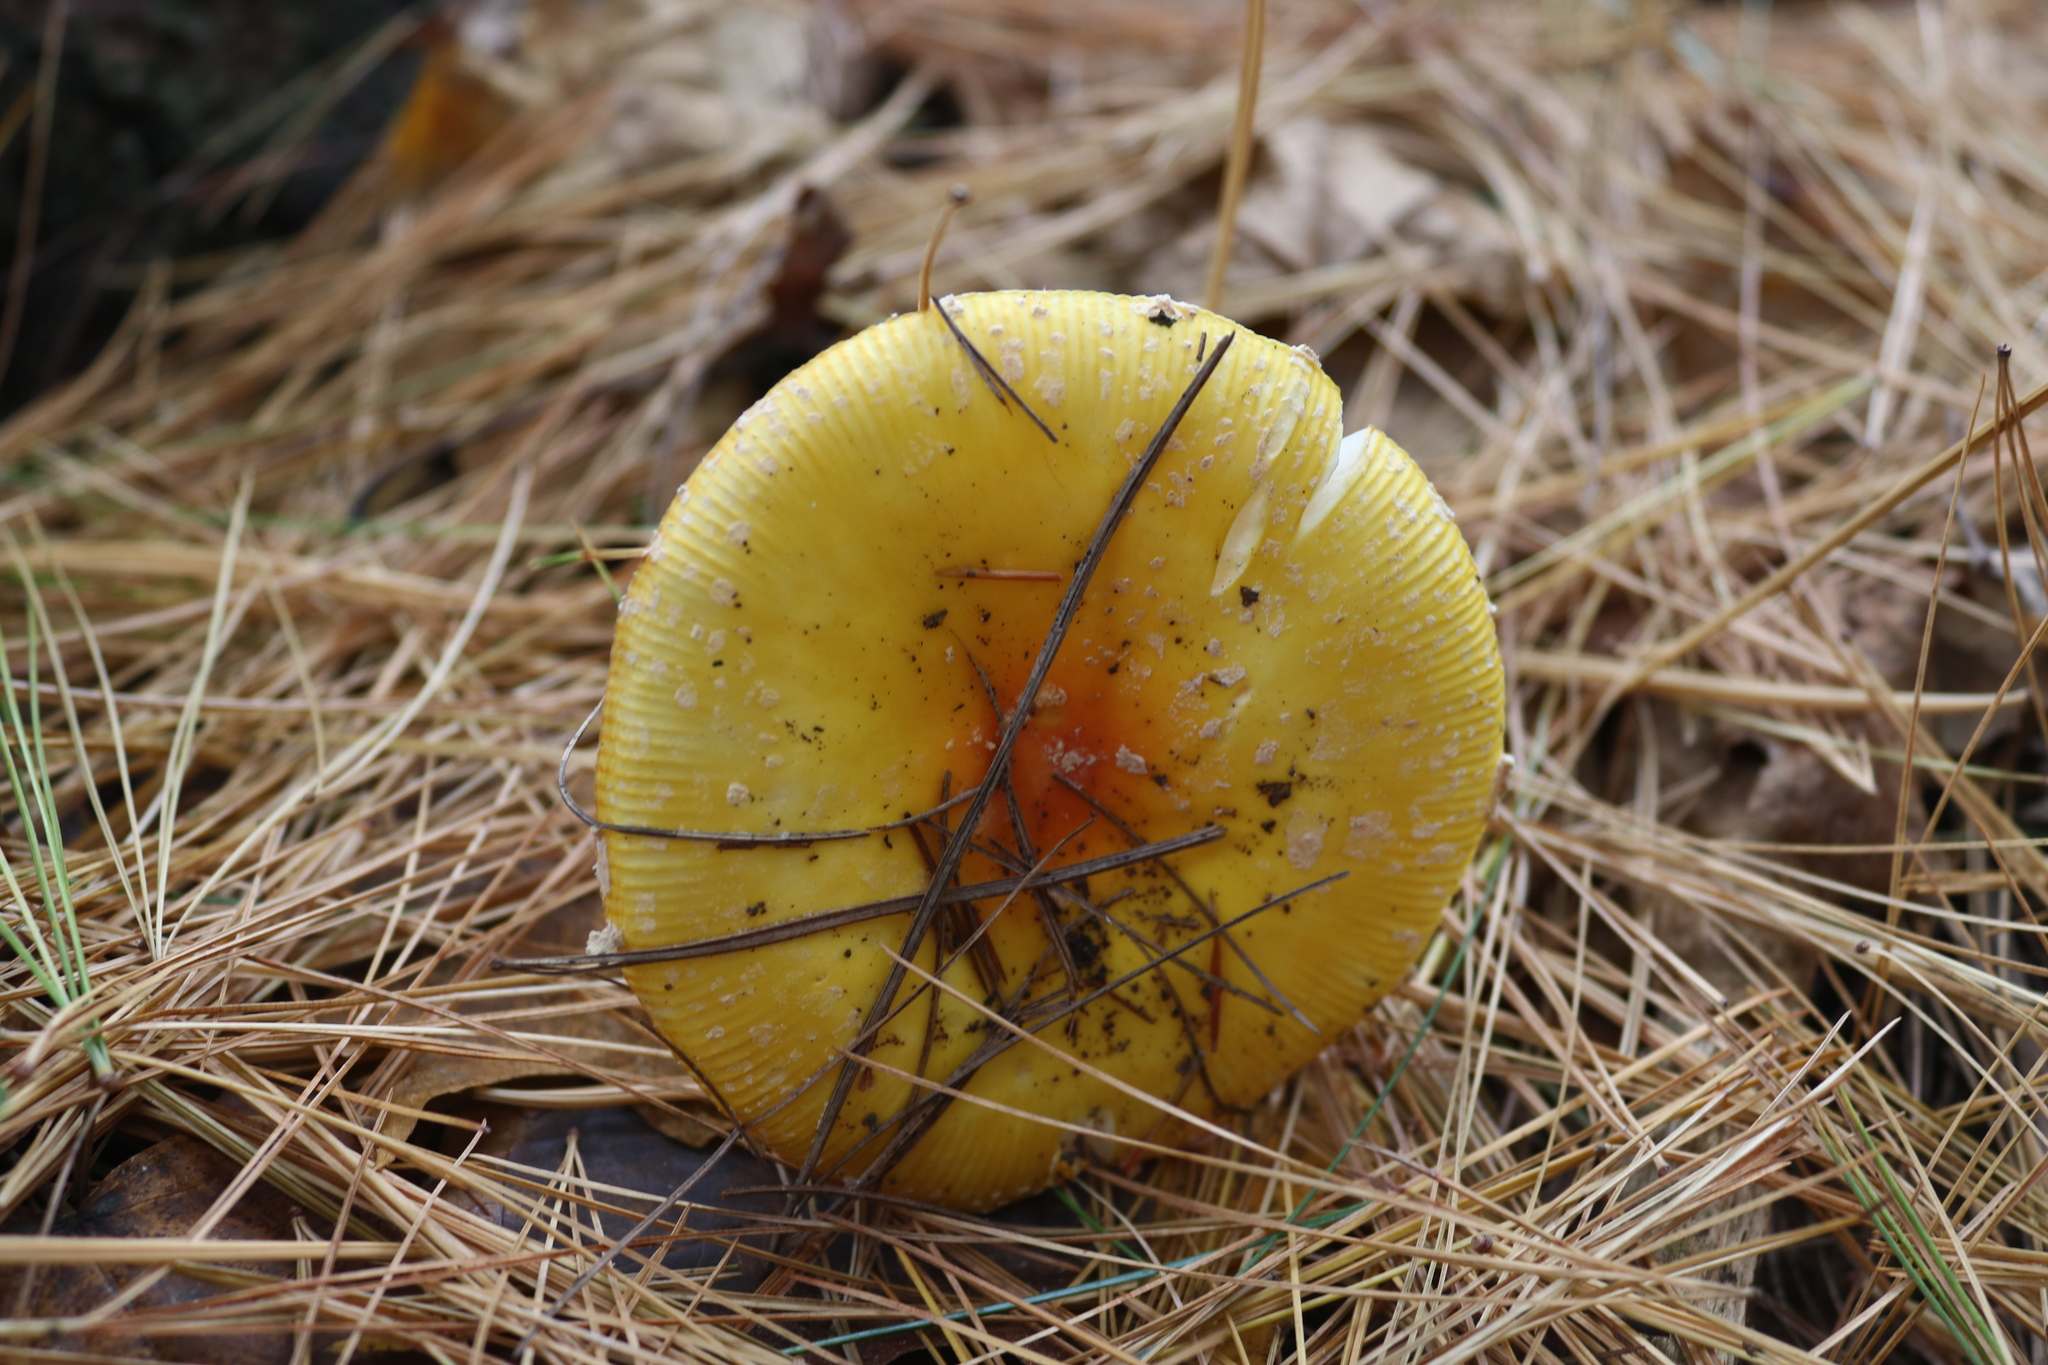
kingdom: Fungi
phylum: Basidiomycota
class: Agaricomycetes
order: Agaricales
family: Amanitaceae
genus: Amanita
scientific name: Amanita muscaria
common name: Fly agaric
